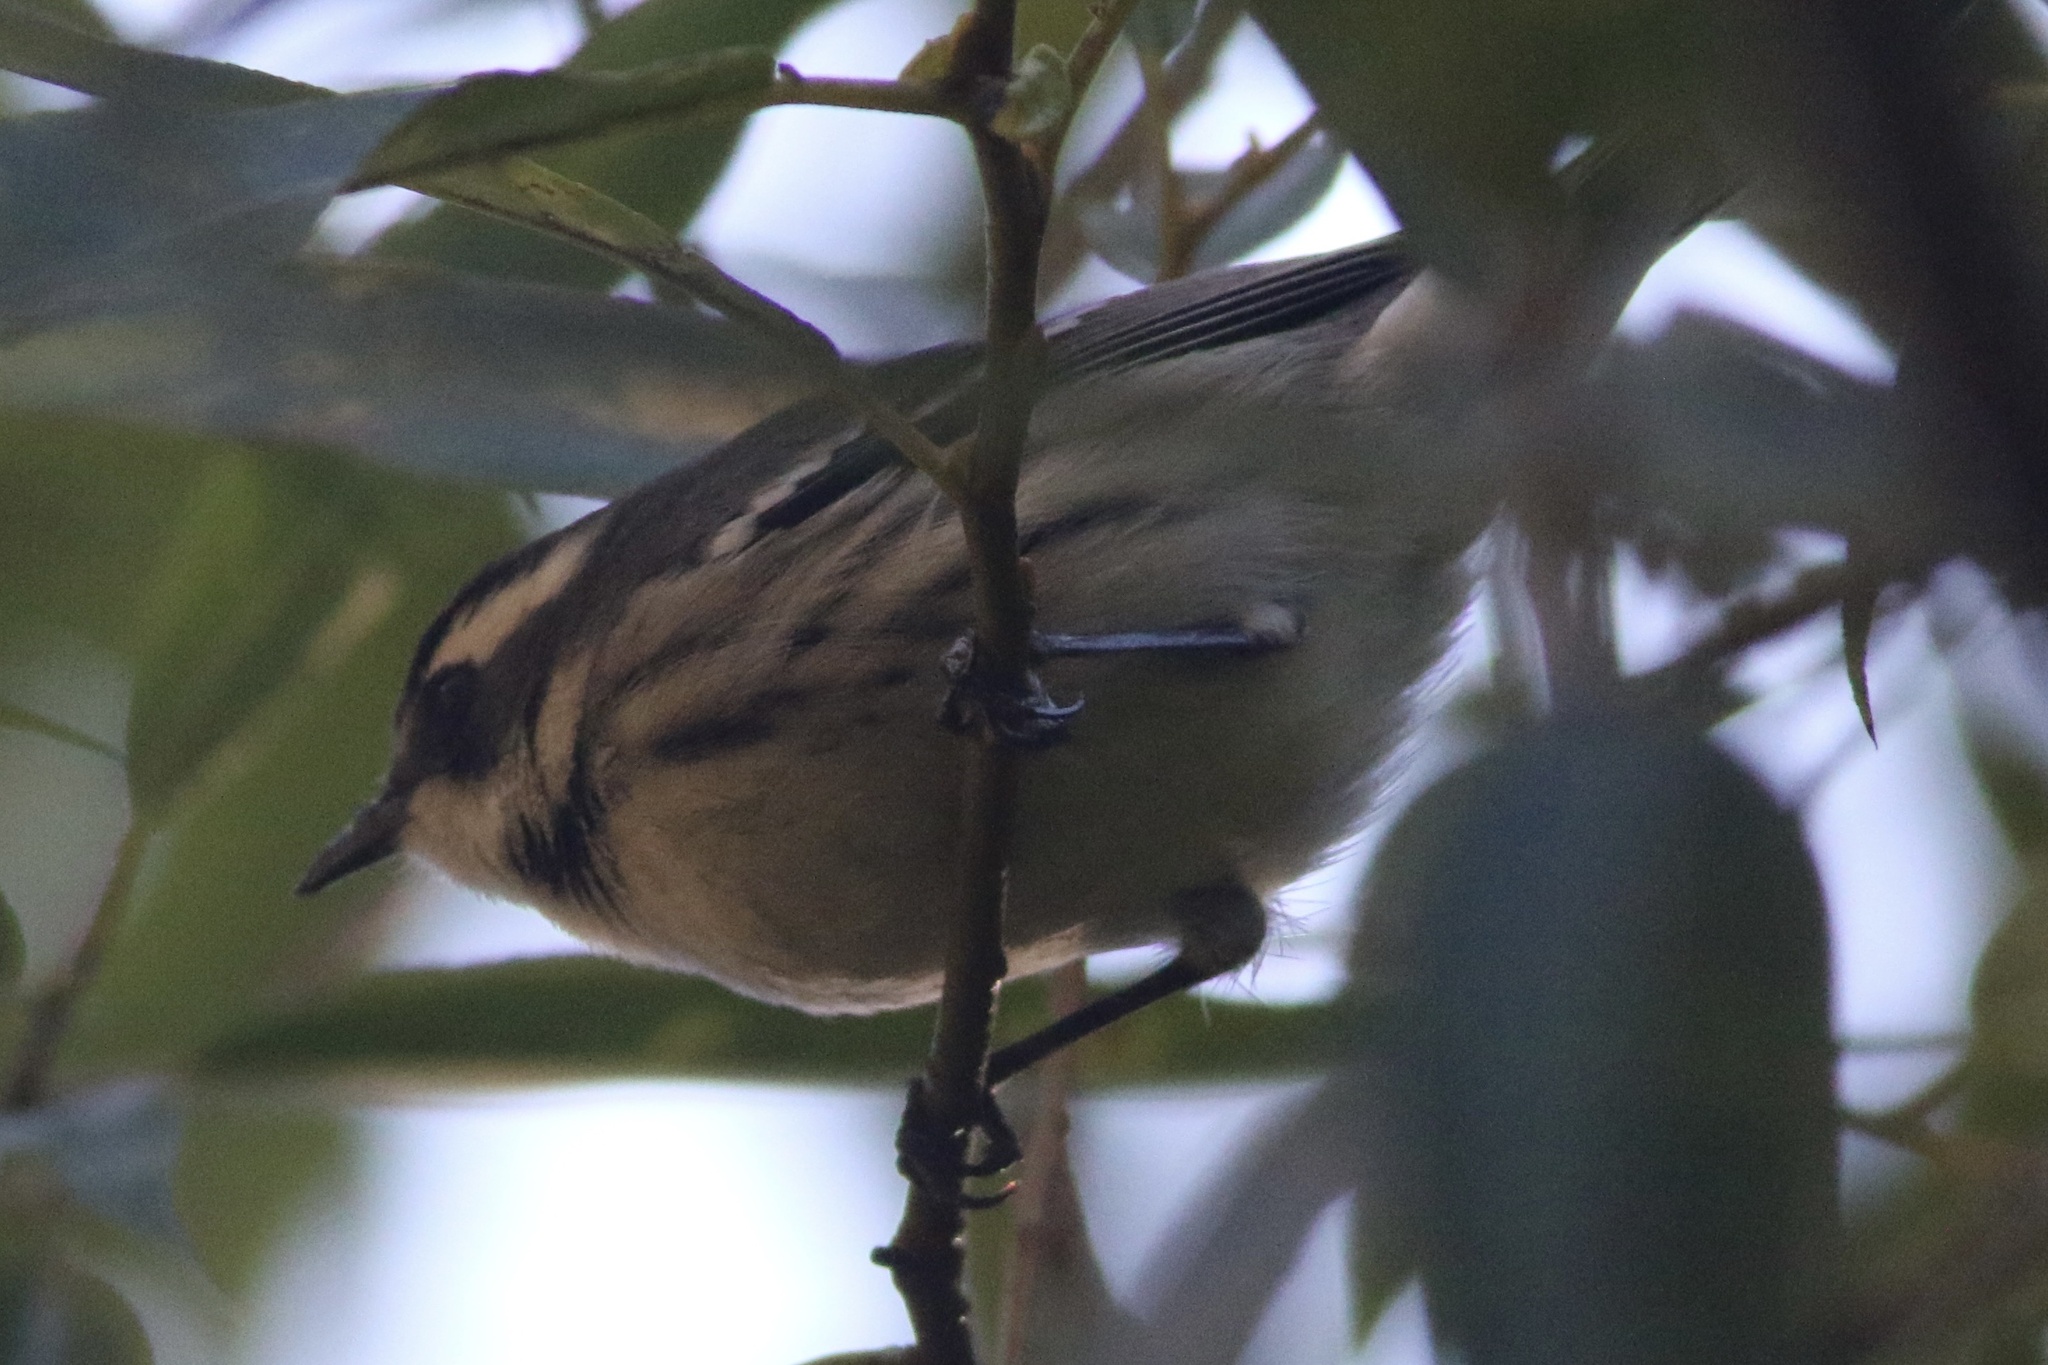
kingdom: Animalia
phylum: Chordata
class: Aves
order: Passeriformes
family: Parulidae
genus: Setophaga
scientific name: Setophaga nigrescens
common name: Black-throated gray warbler
